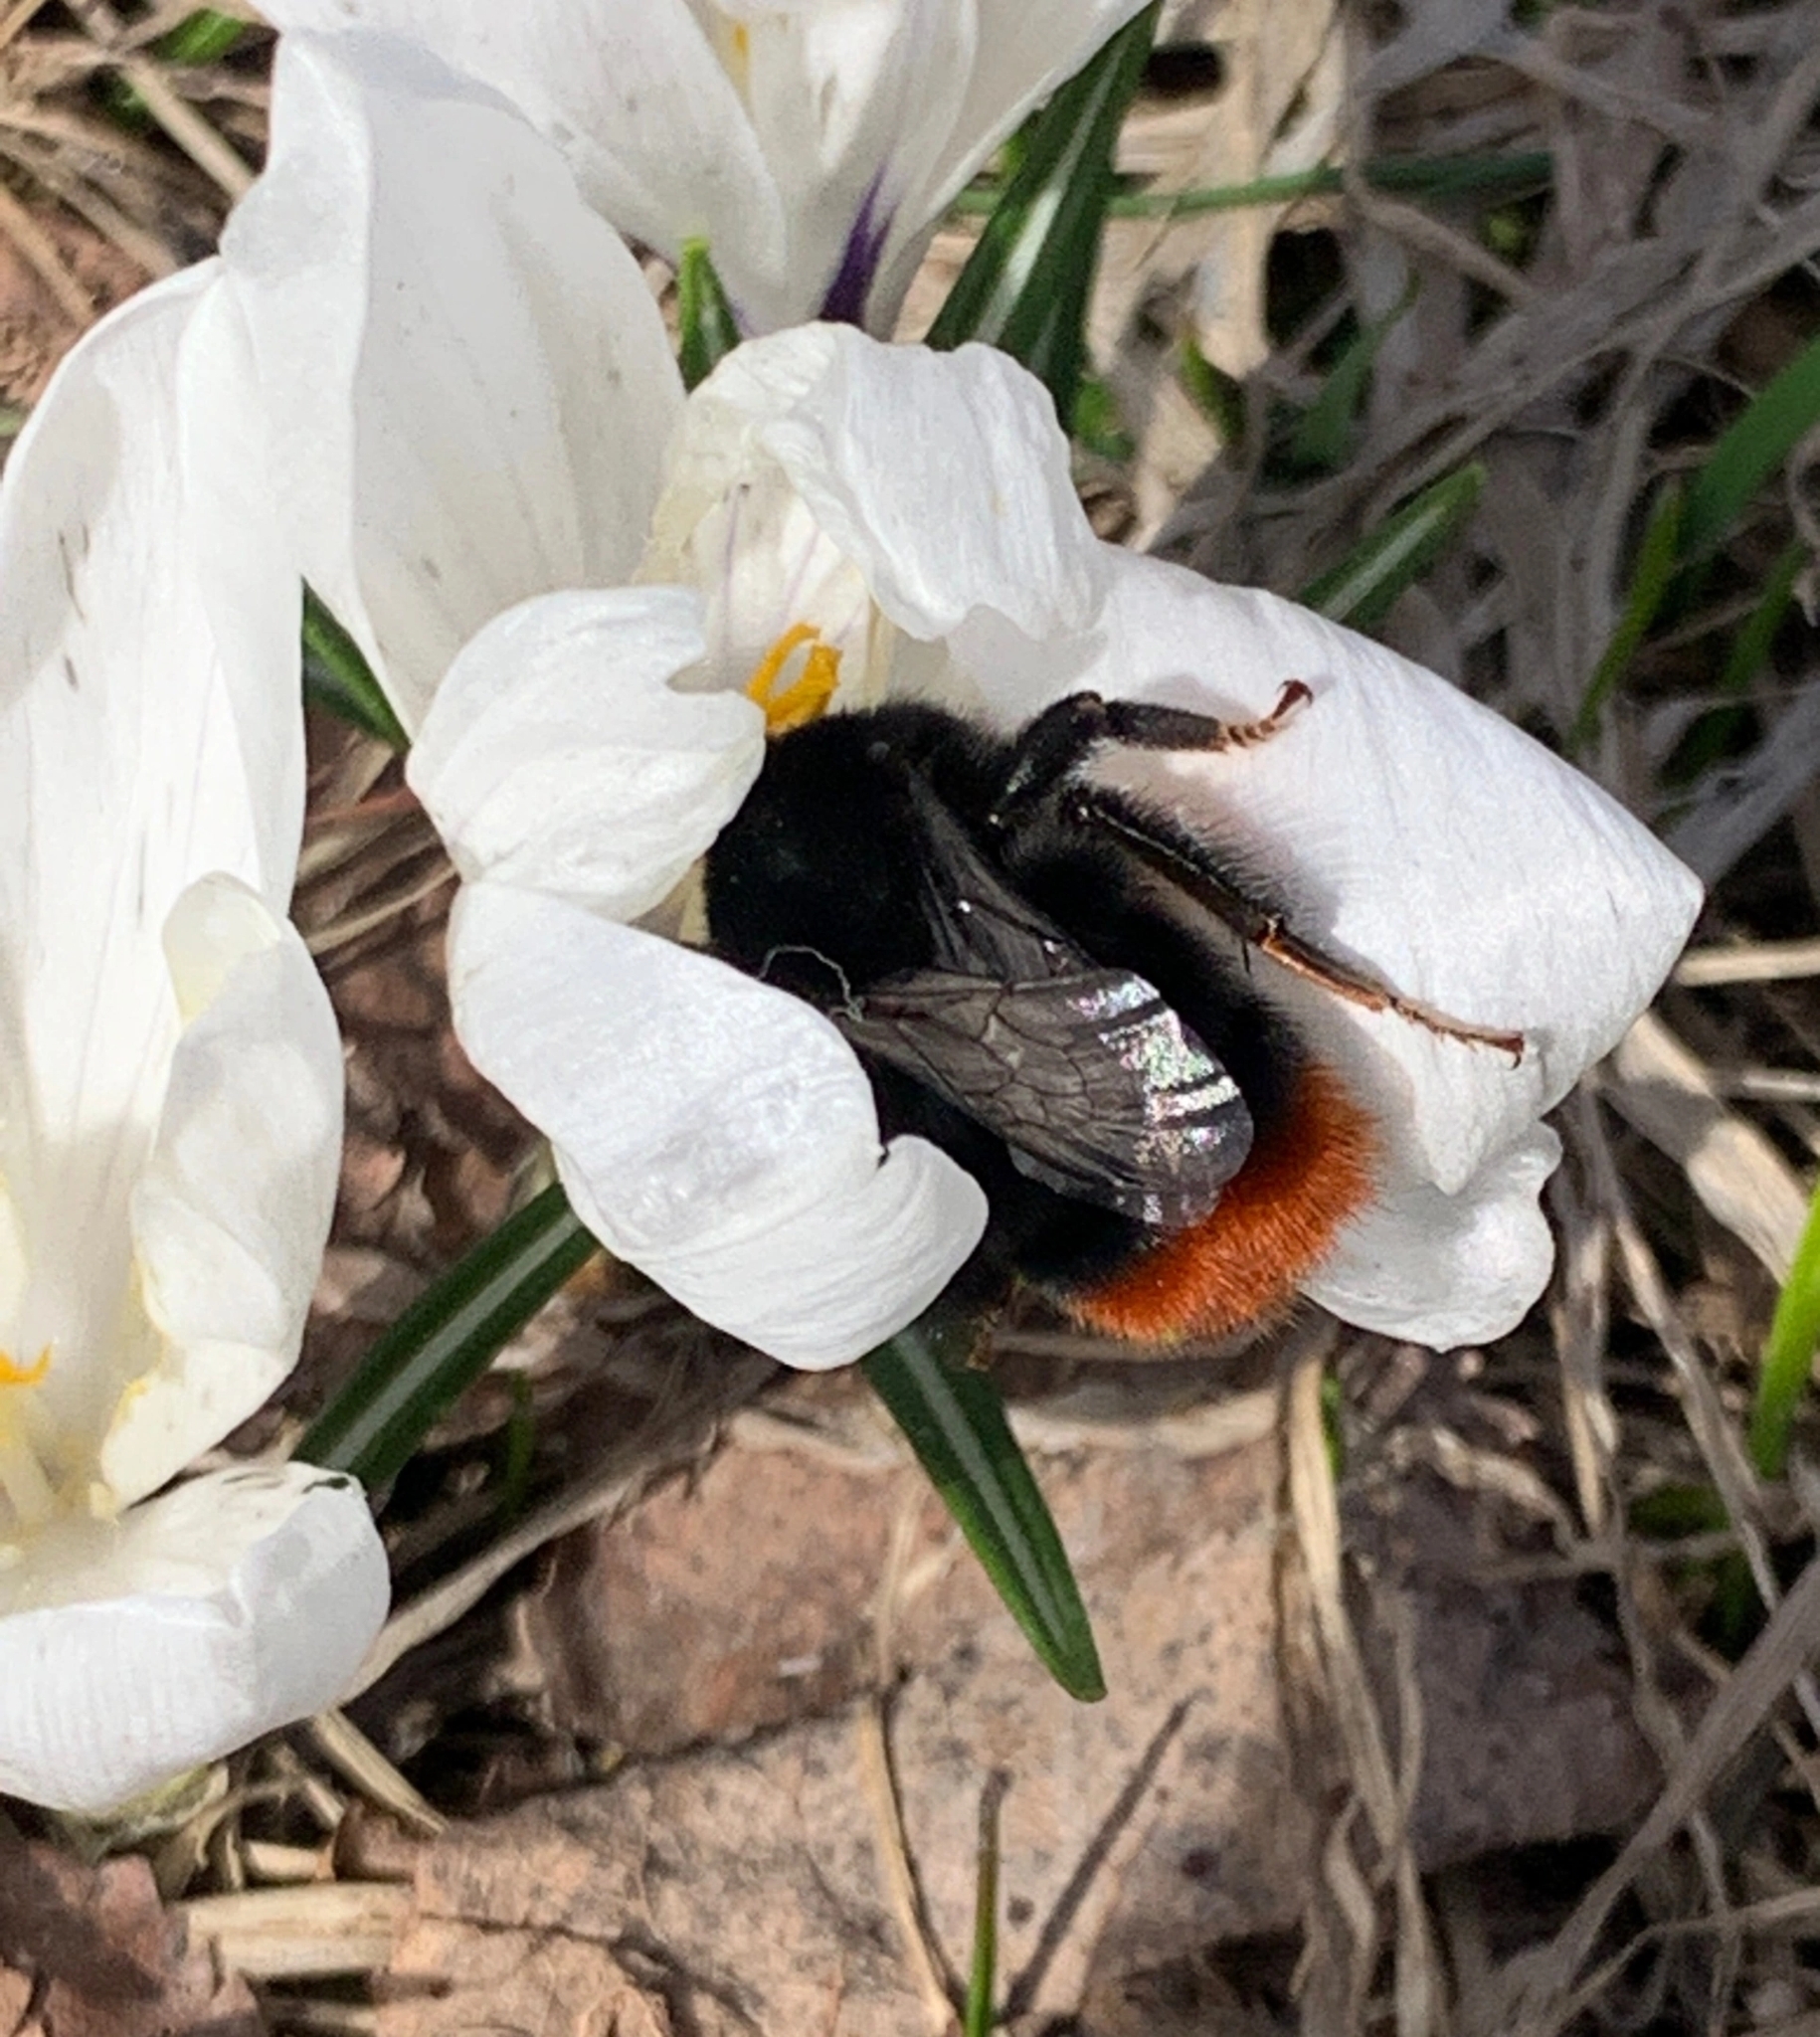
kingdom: Animalia
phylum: Arthropoda
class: Insecta
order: Hymenoptera
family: Apidae
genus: Bombus
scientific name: Bombus lapidarius
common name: Large red-tailed humble-bee
